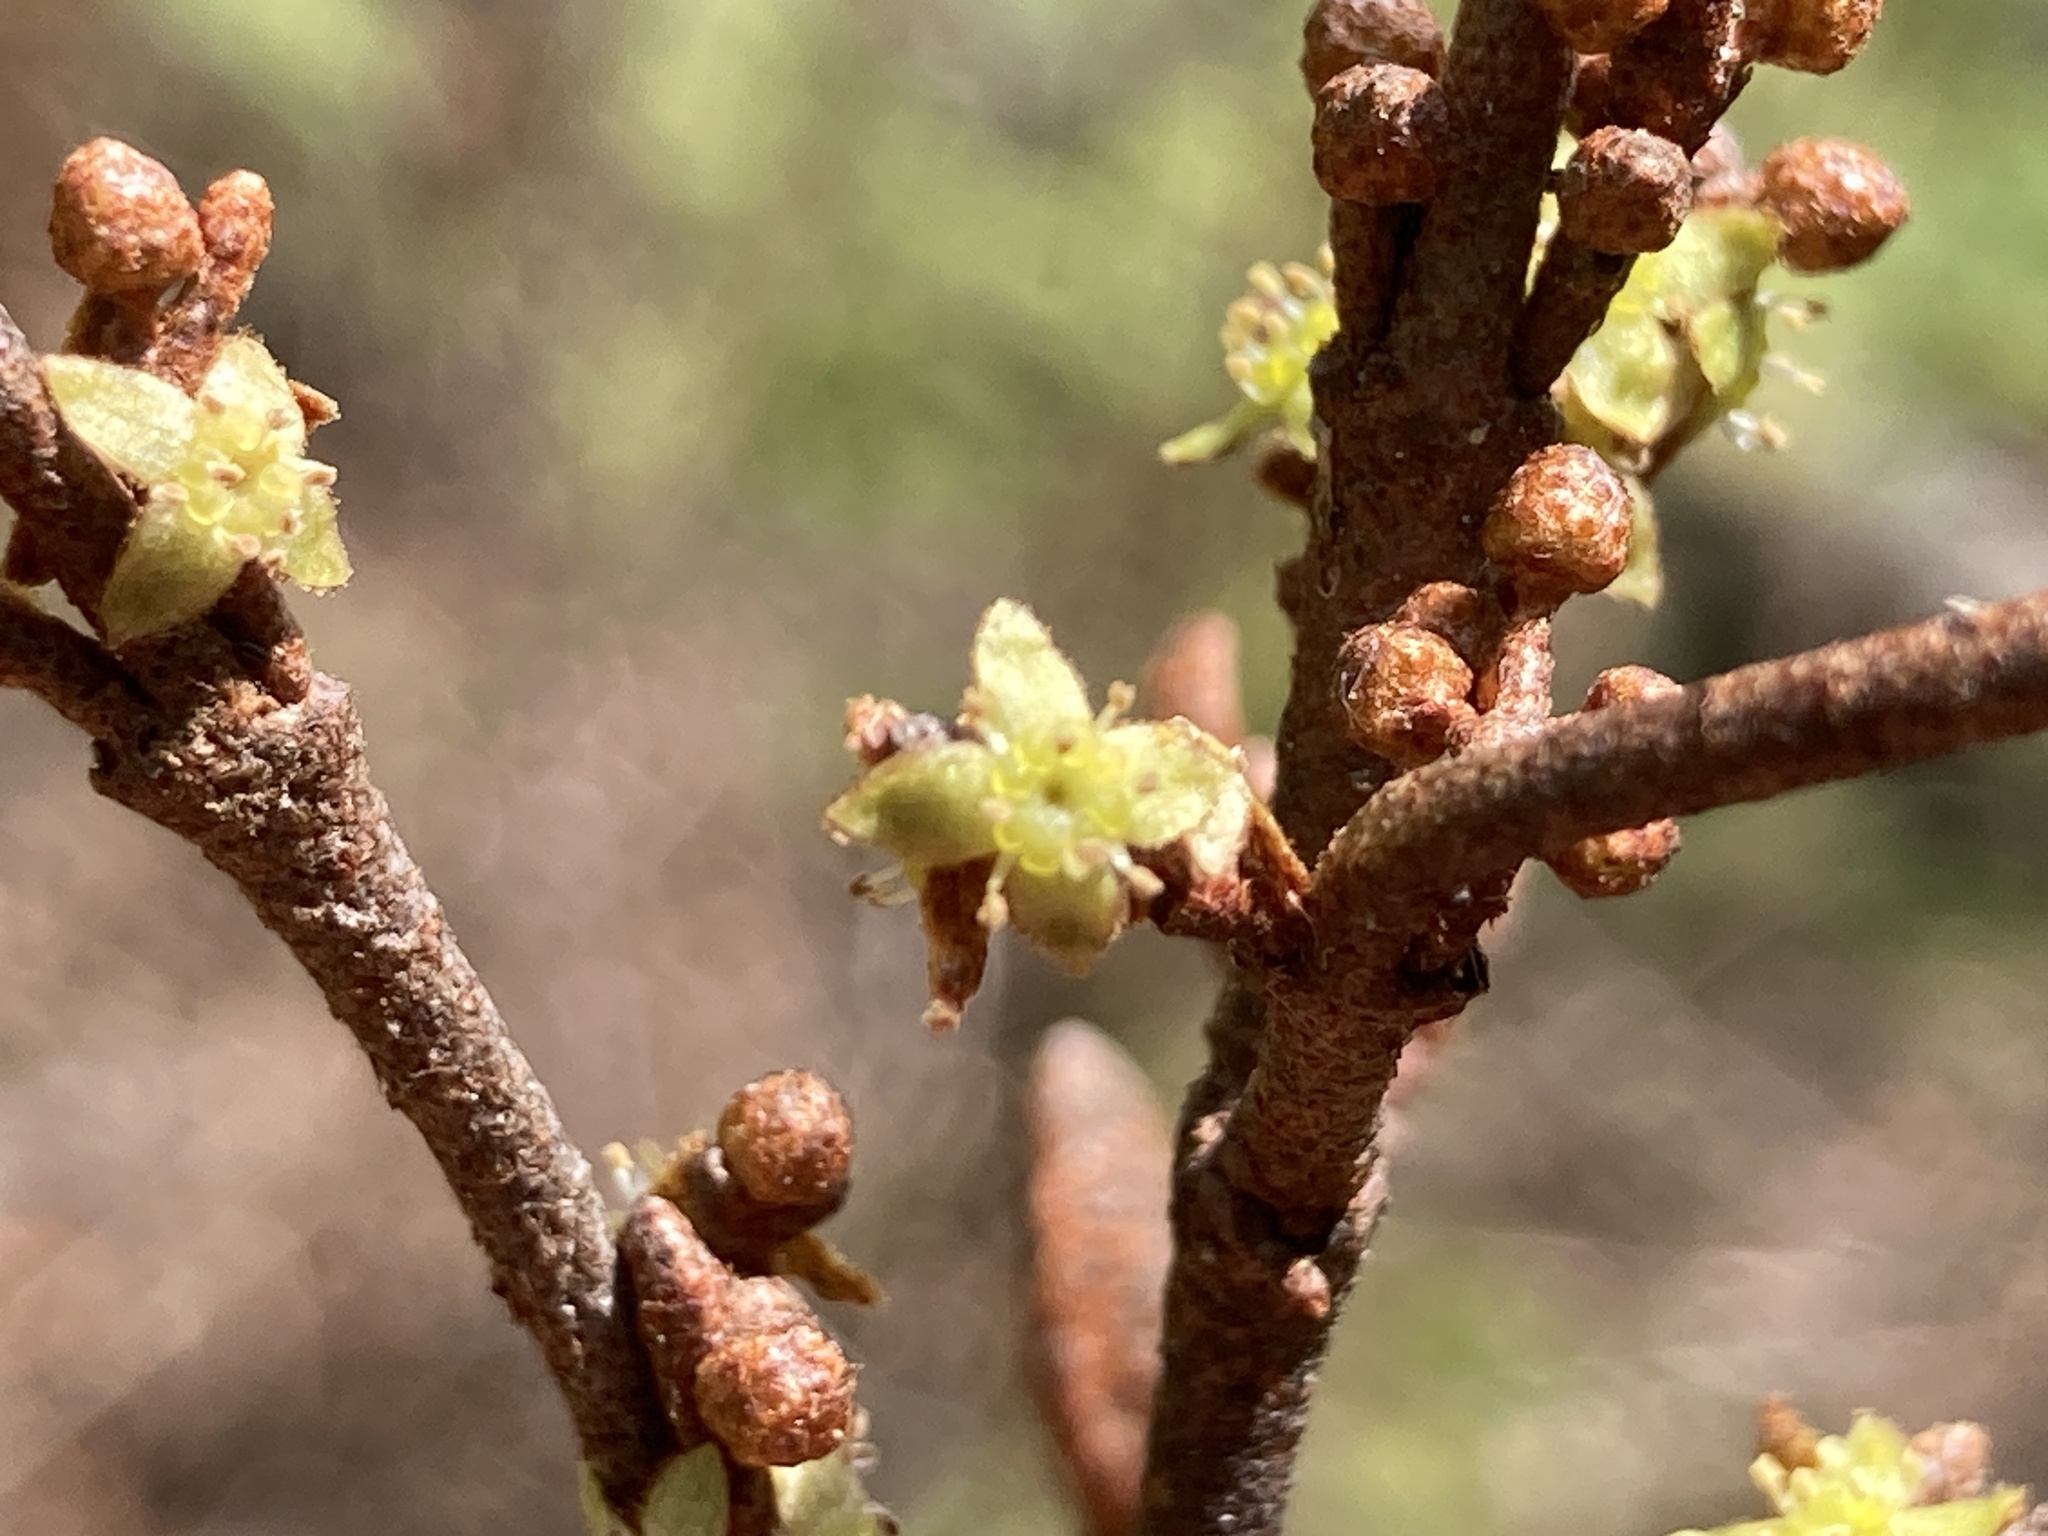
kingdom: Plantae
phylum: Tracheophyta
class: Magnoliopsida
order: Rosales
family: Elaeagnaceae
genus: Shepherdia
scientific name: Shepherdia canadensis
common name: Soapberry
